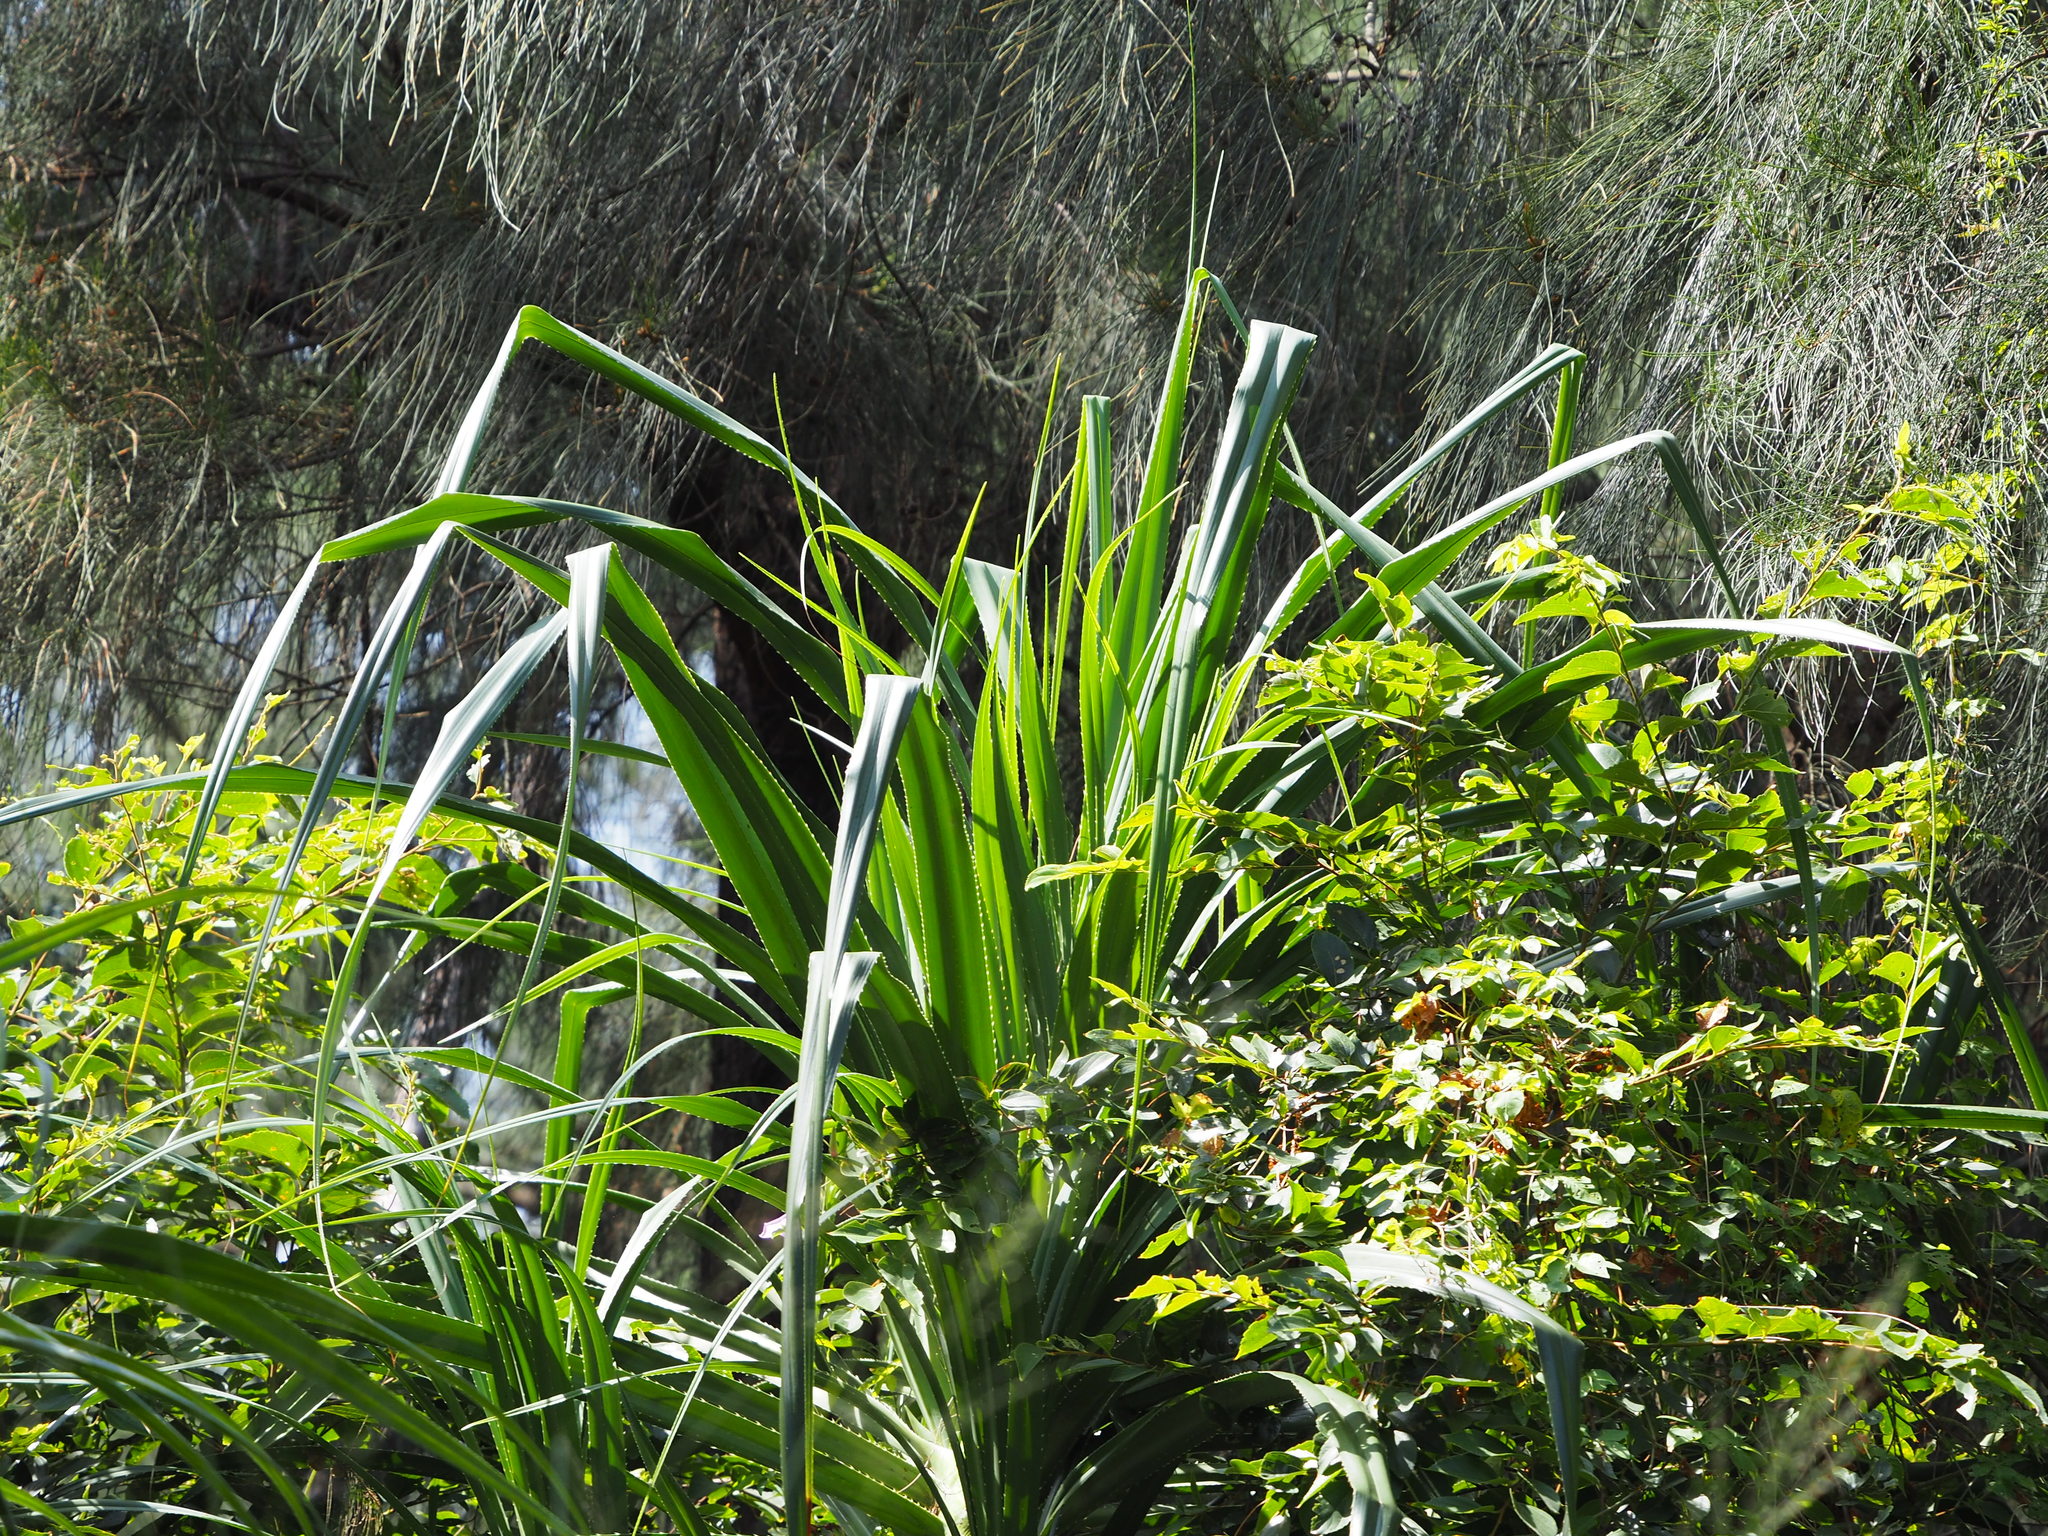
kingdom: Plantae
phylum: Tracheophyta
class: Liliopsida
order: Pandanales
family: Pandanaceae
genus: Pandanus
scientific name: Pandanus odorifer
